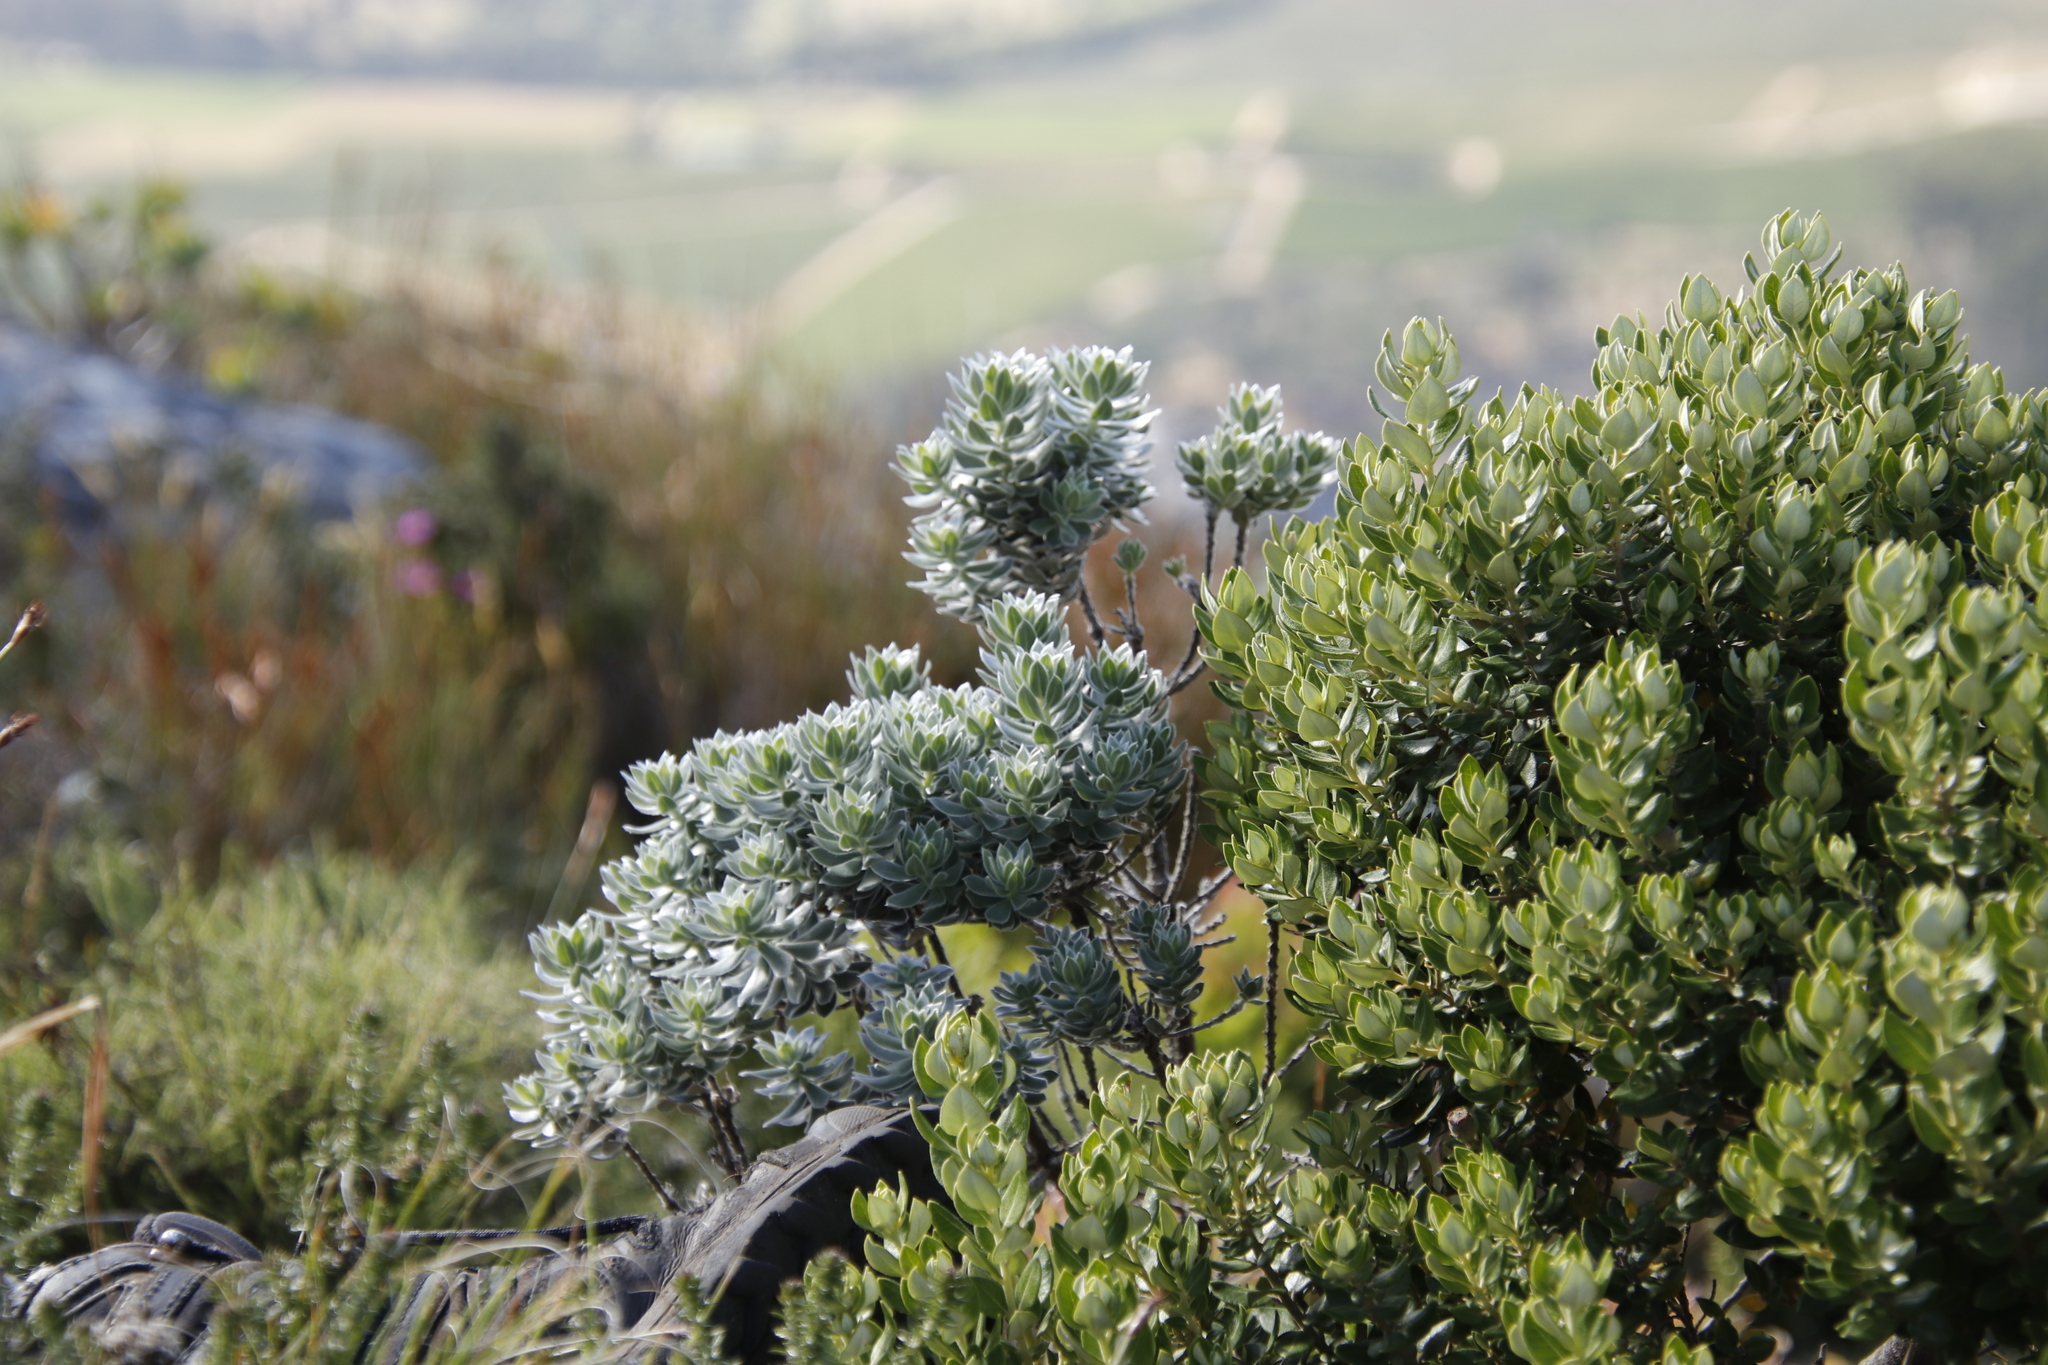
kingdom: Plantae
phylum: Tracheophyta
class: Magnoliopsida
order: Fabales
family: Fabaceae
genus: Xiphotheca
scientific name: Xiphotheca fruticosa
